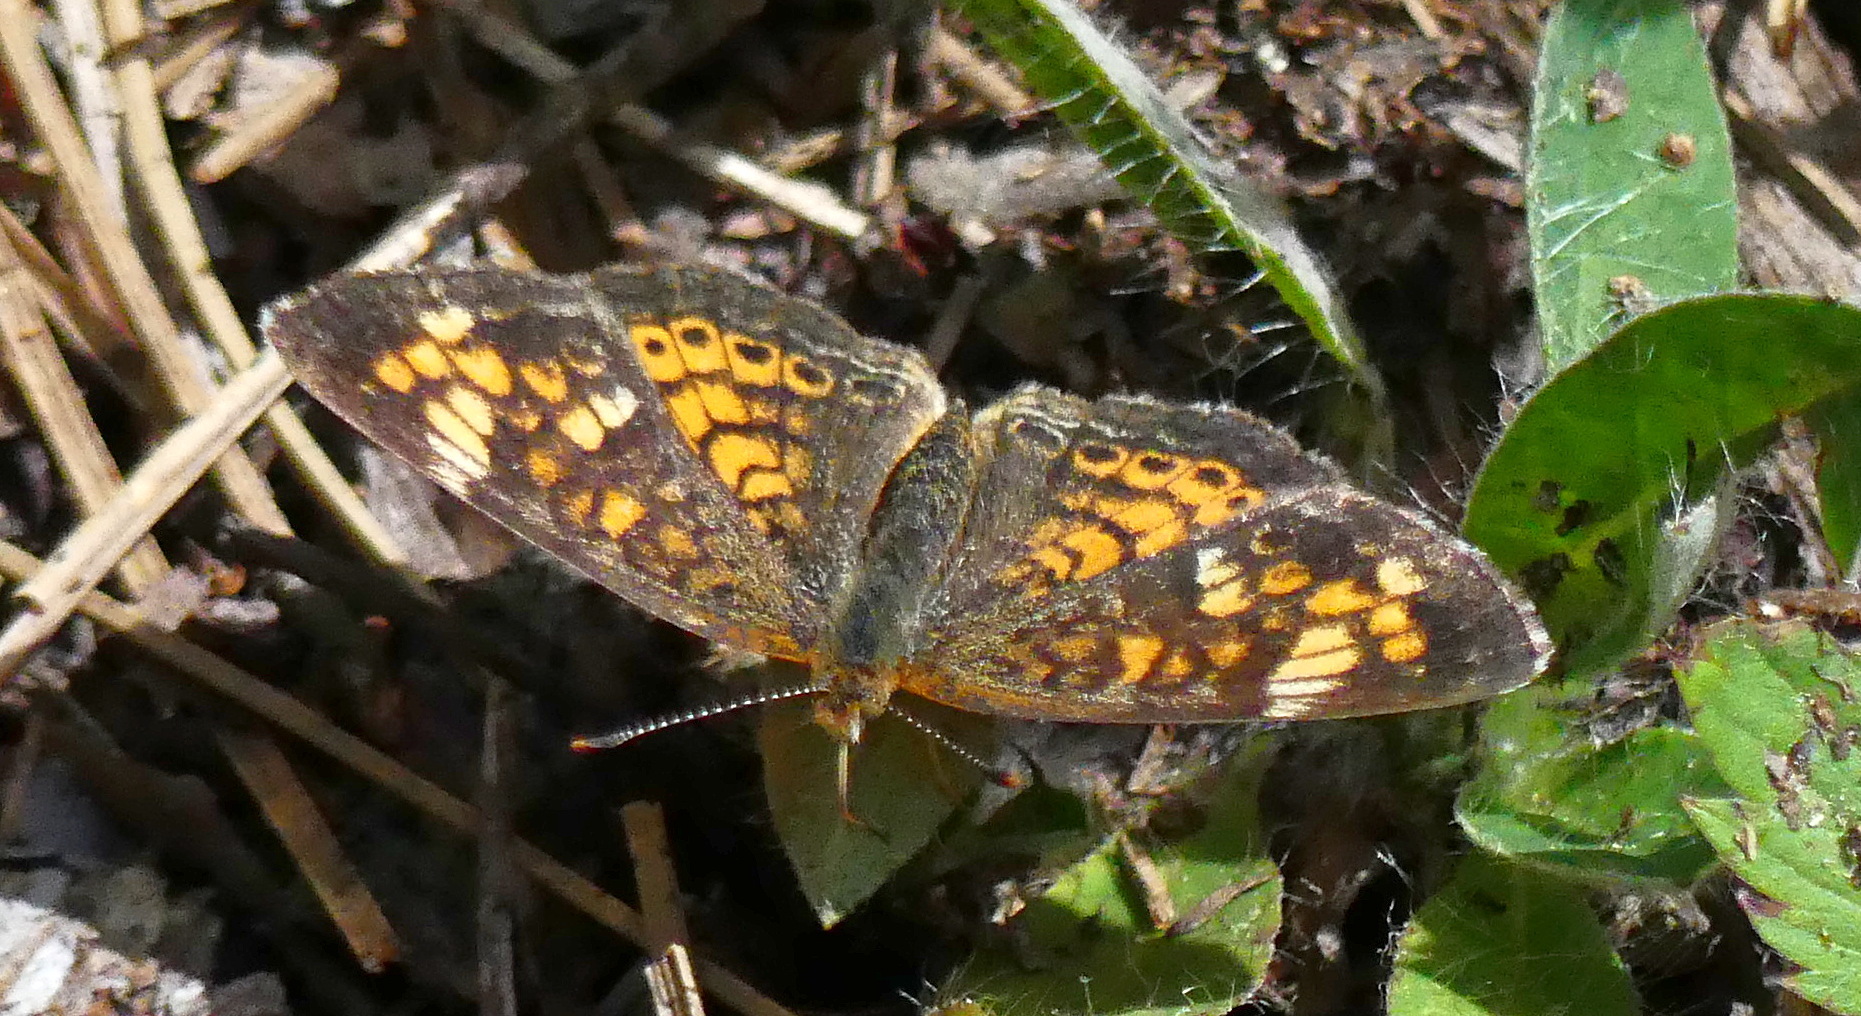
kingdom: Animalia
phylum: Arthropoda
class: Insecta
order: Lepidoptera
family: Nymphalidae
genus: Phyciodes
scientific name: Phyciodes tharos
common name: Pearl crescent
